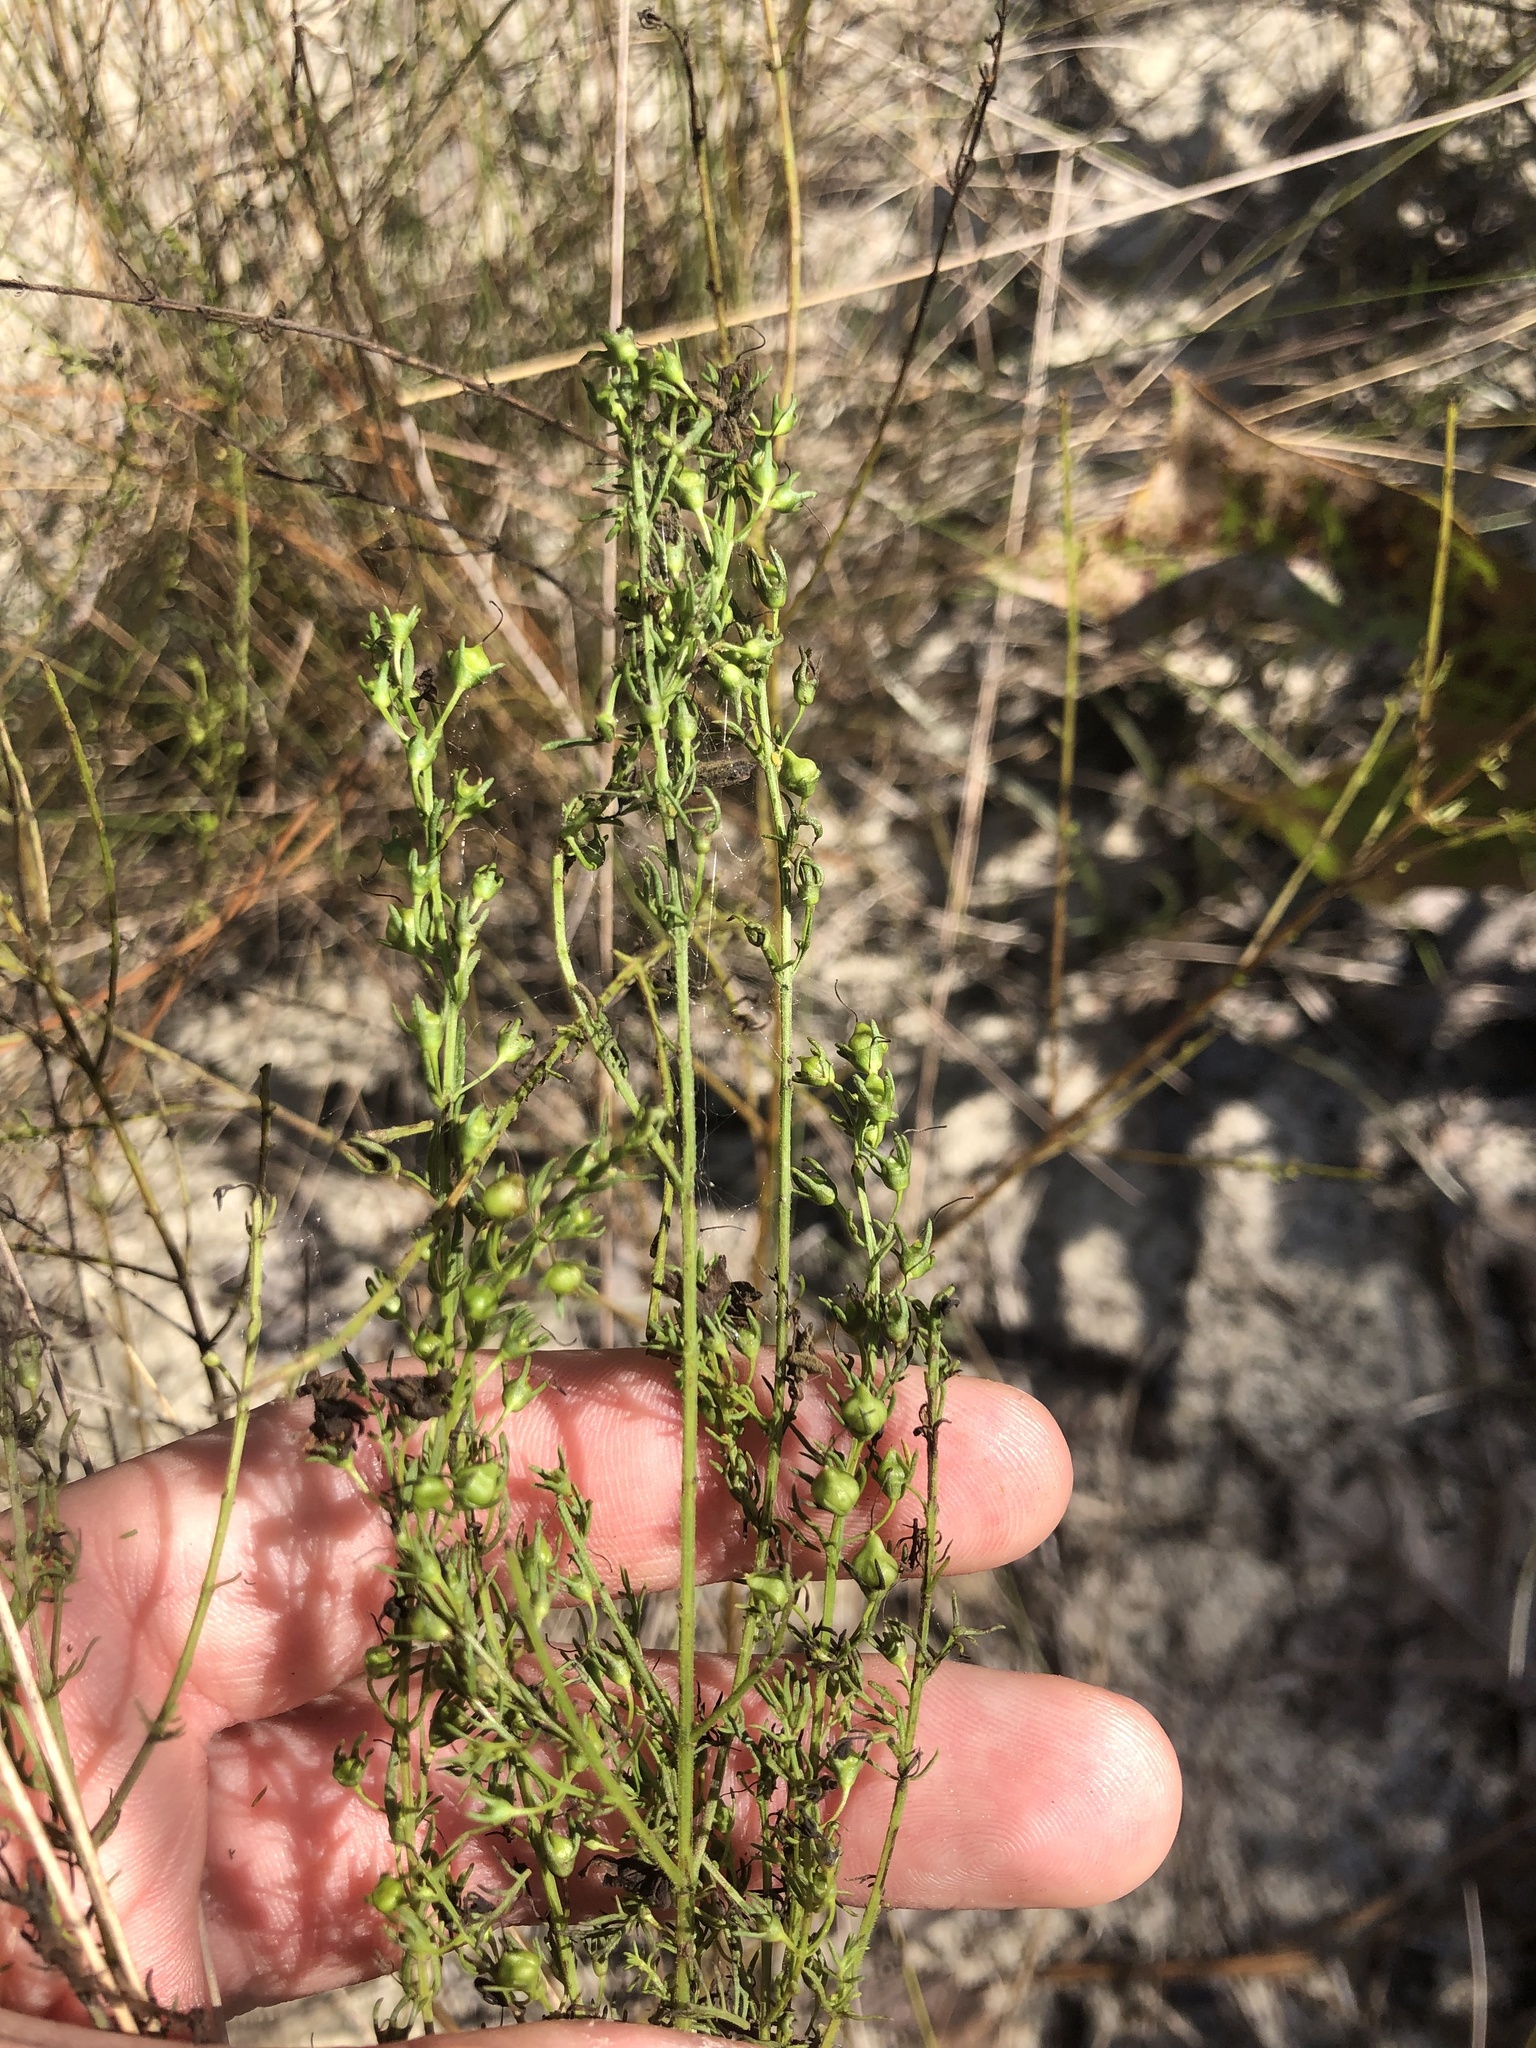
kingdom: Plantae
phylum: Tracheophyta
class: Magnoliopsida
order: Lamiales
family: Orobanchaceae
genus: Seymeria
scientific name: Seymeria cassioides
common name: Yaupon black-senna
